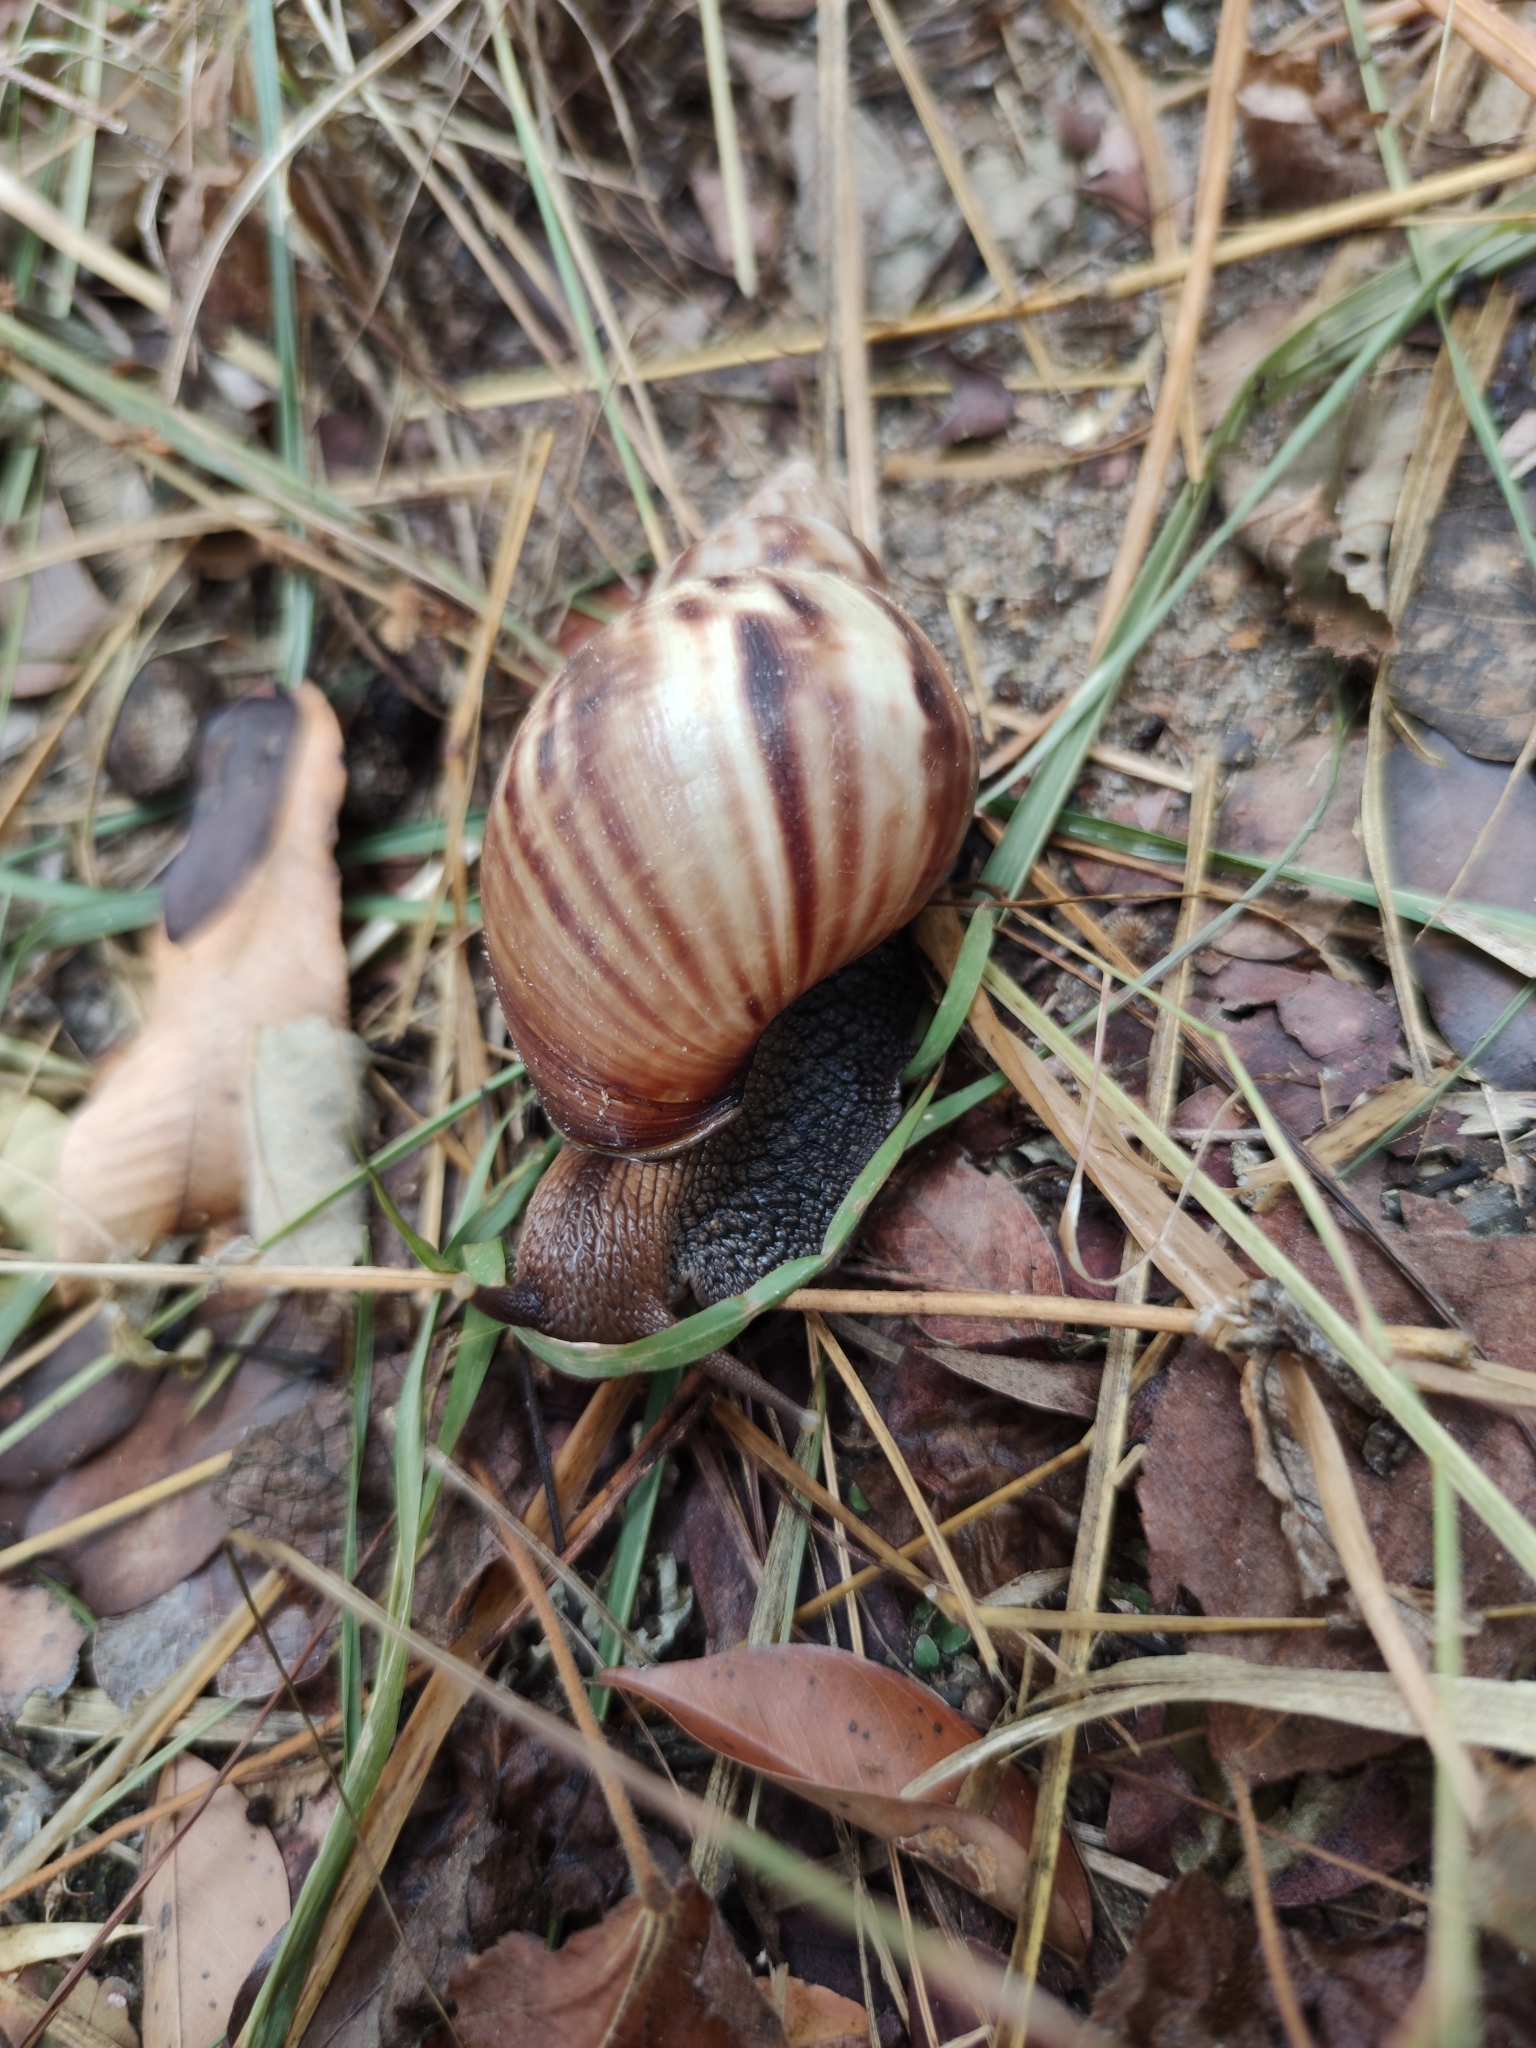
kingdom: Animalia
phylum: Mollusca
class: Gastropoda
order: Stylommatophora
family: Achatinidae
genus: Lissachatina
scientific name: Lissachatina fulica
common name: Giant african snail
